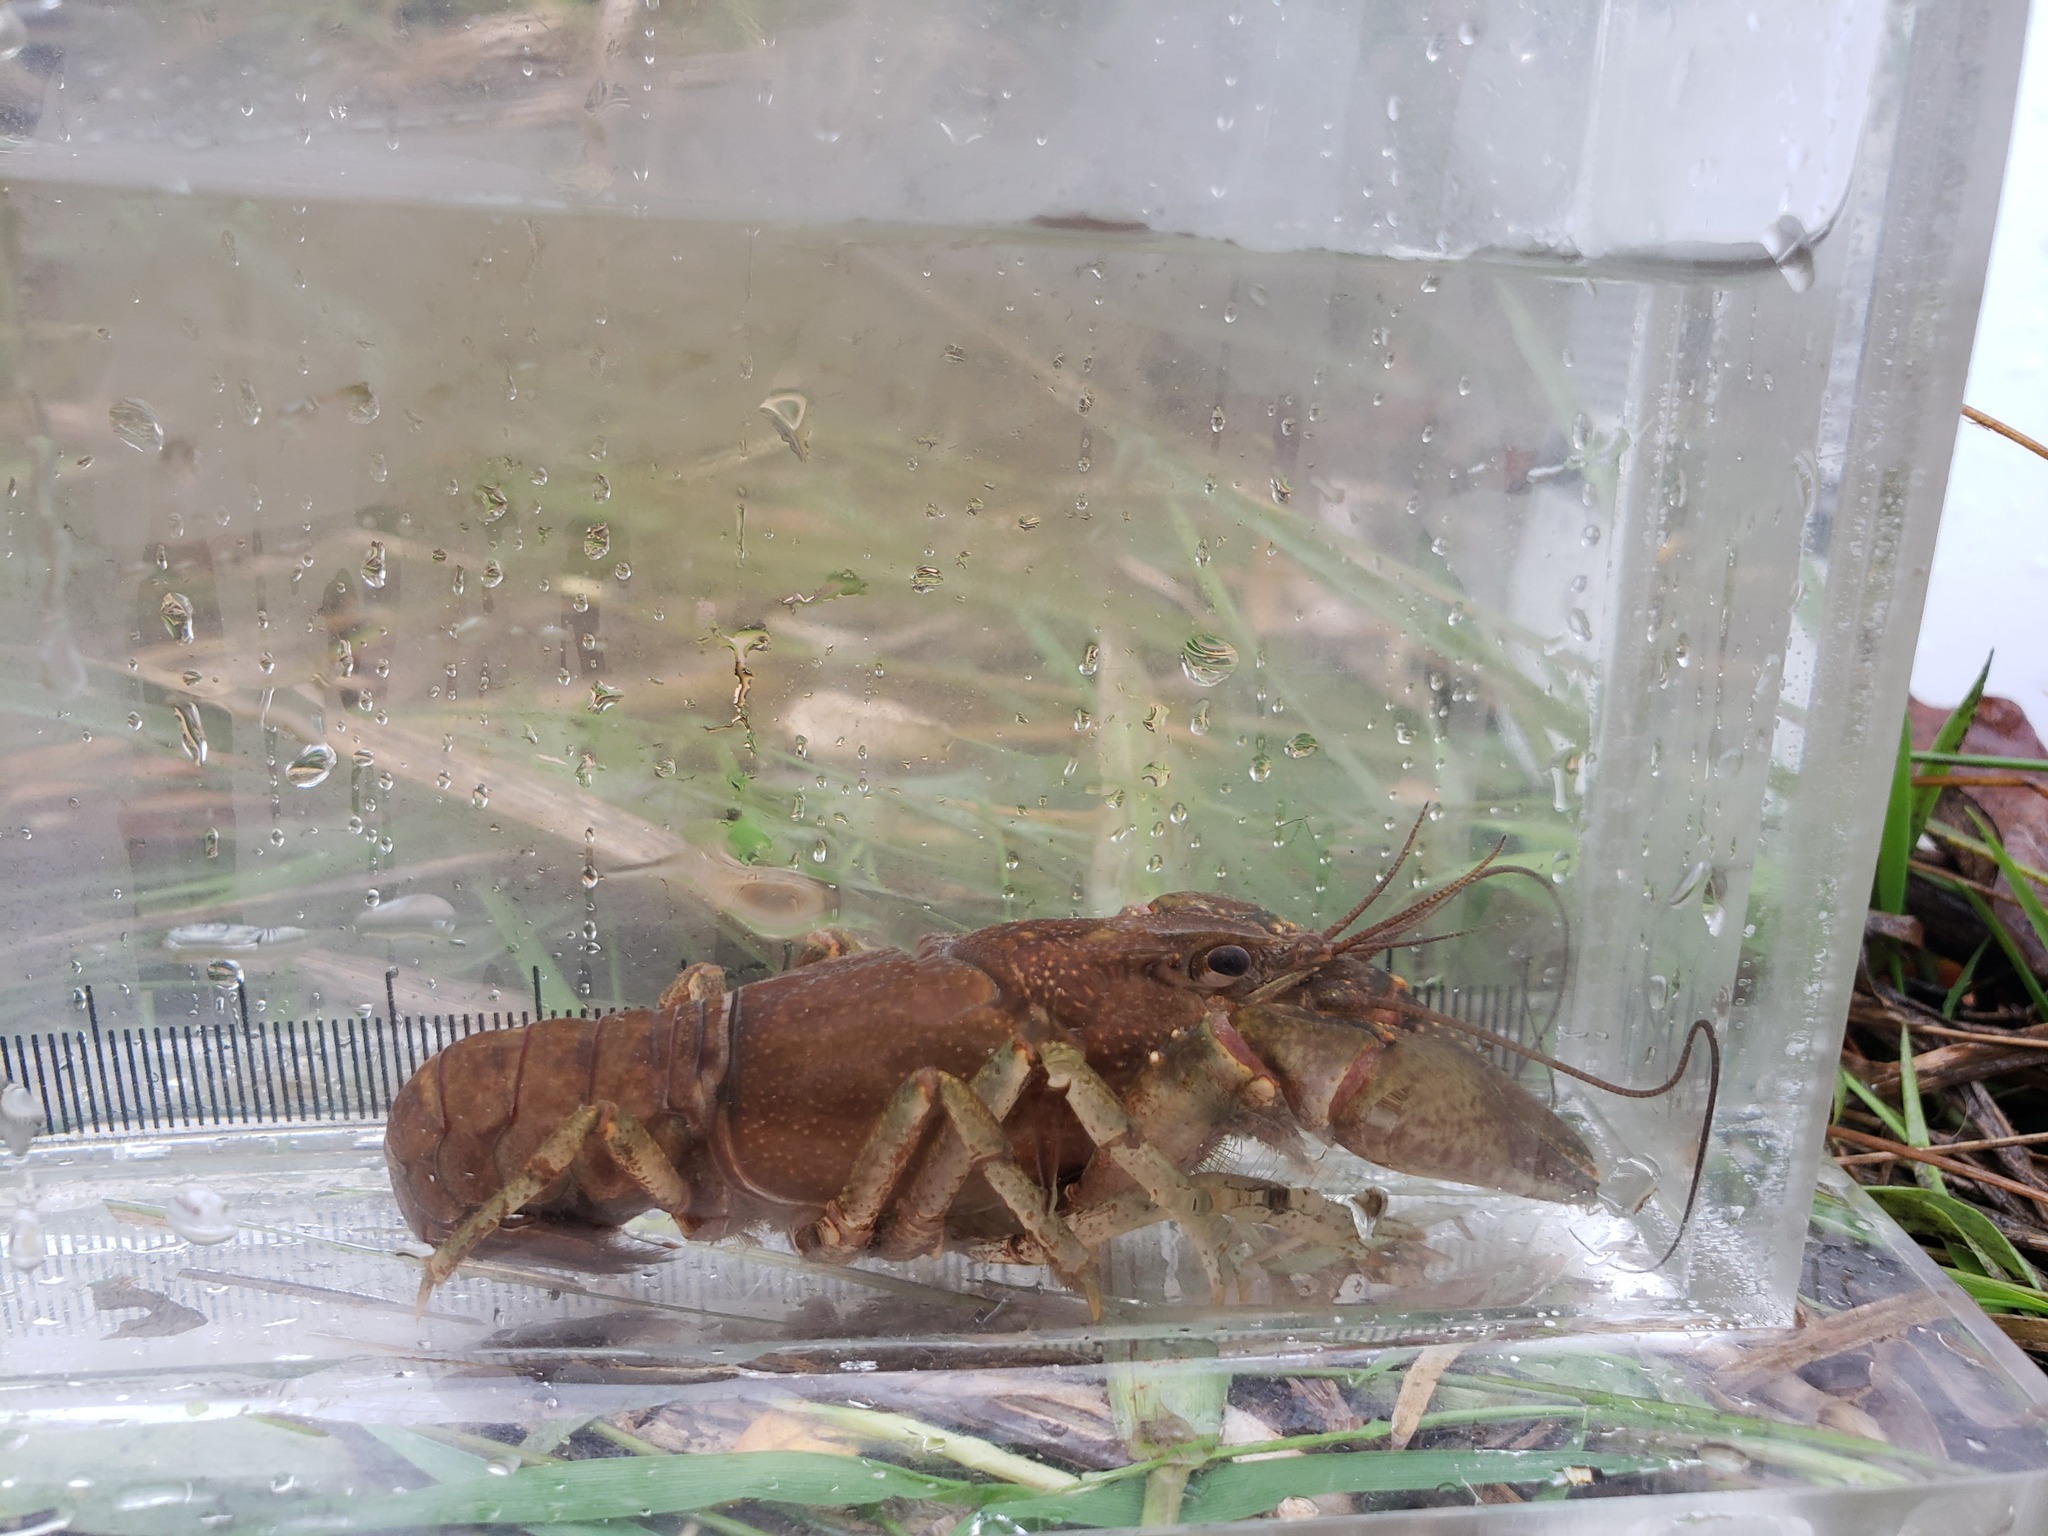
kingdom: Animalia
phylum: Arthropoda
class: Malacostraca
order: Decapoda
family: Cambaridae
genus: Faxonius
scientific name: Faxonius virilis
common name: Virile crayfish
